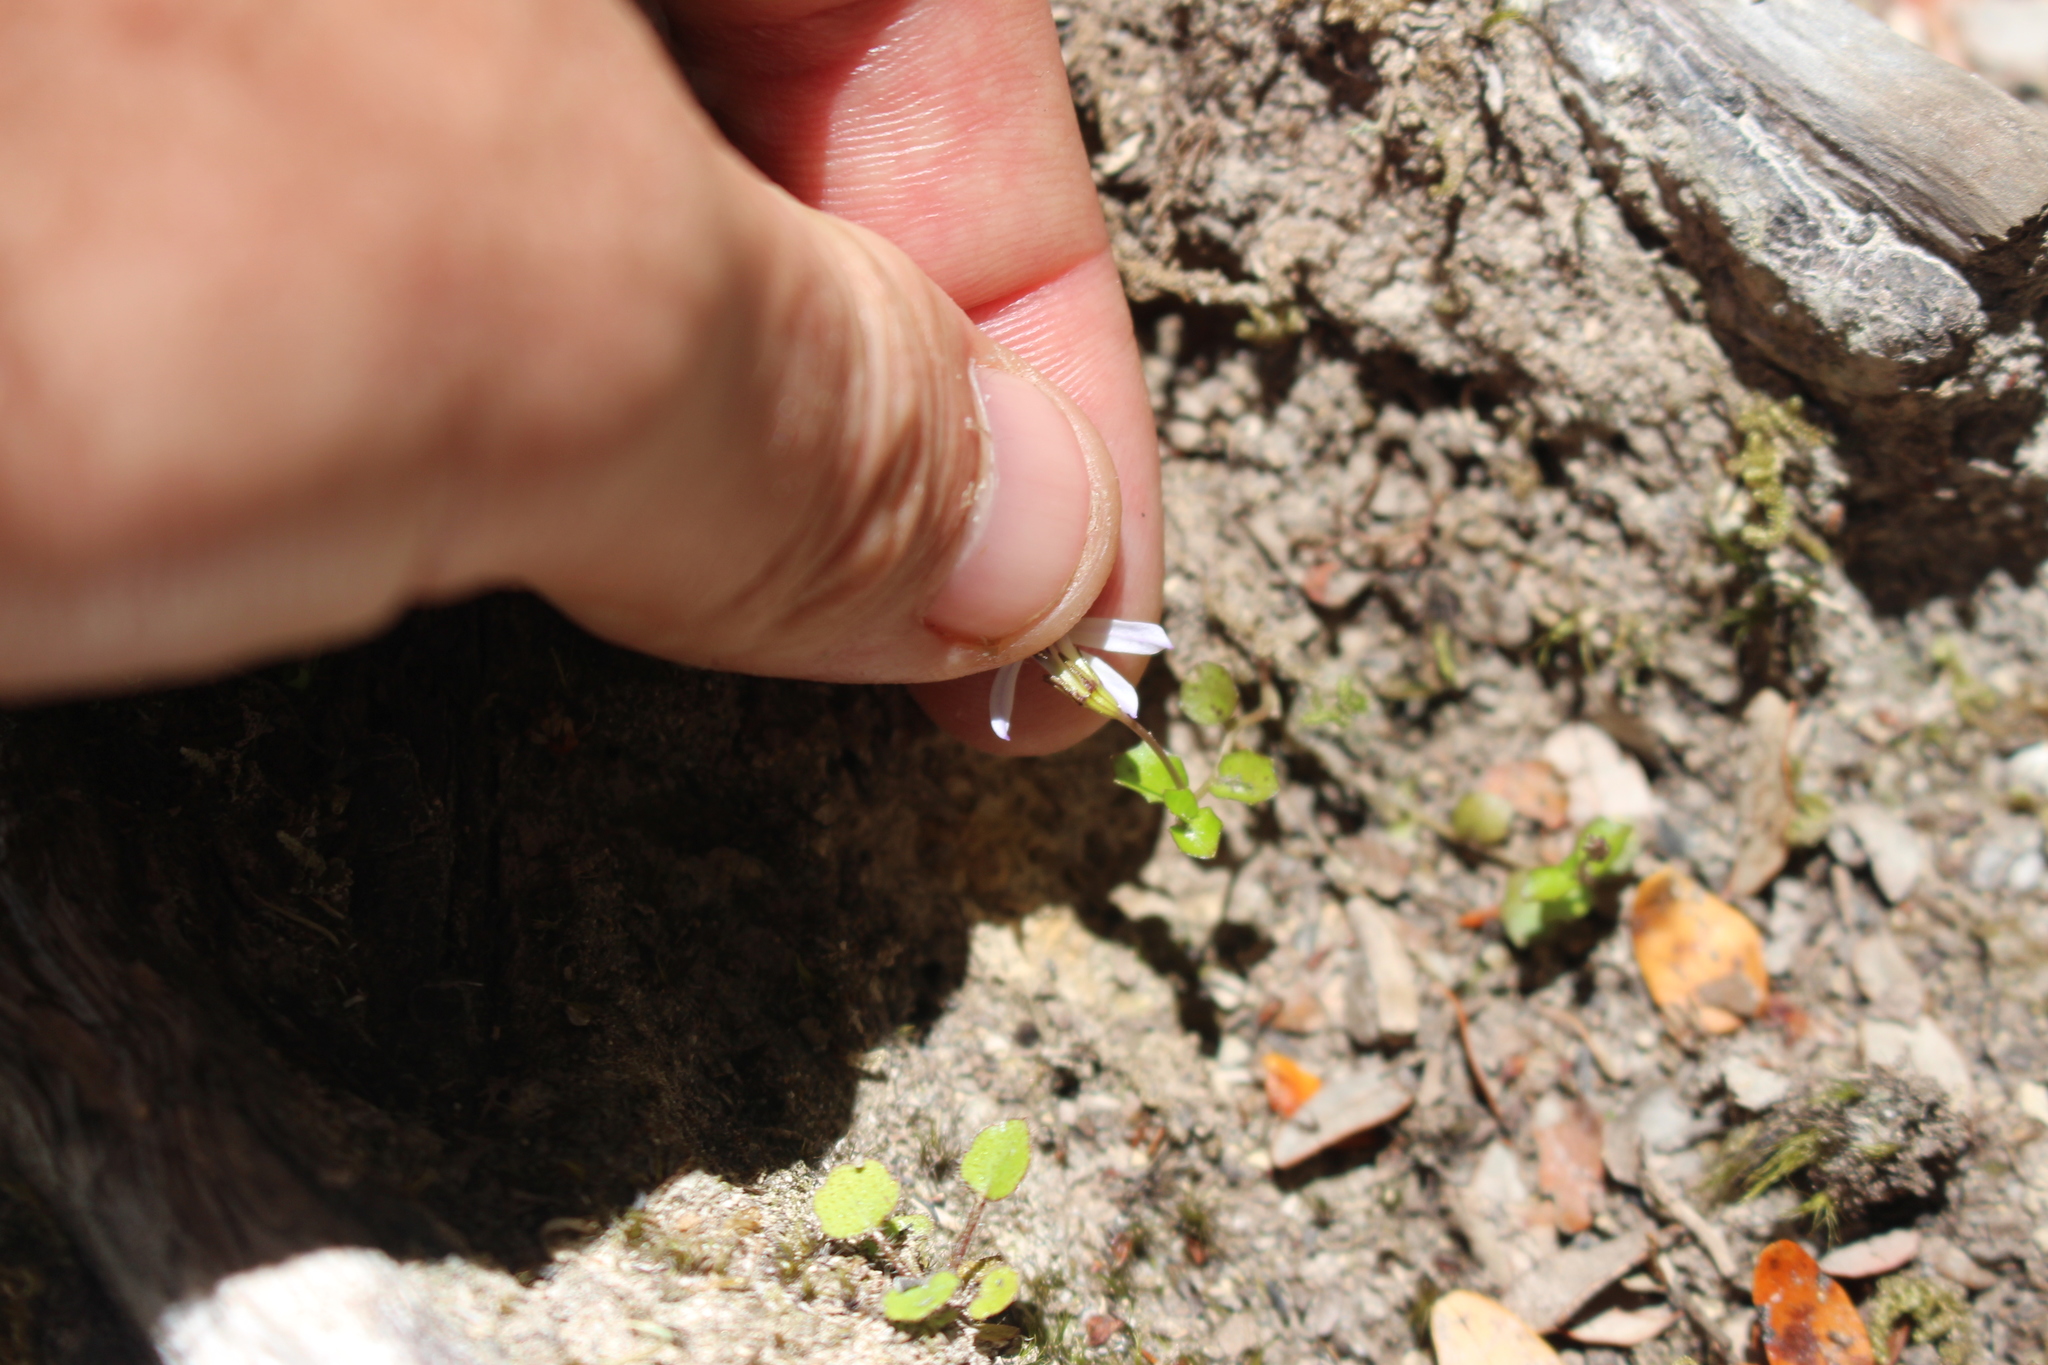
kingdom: Plantae
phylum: Tracheophyta
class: Magnoliopsida
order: Asterales
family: Campanulaceae
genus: Lobelia
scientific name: Lobelia angulata
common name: Lawn lobelia
